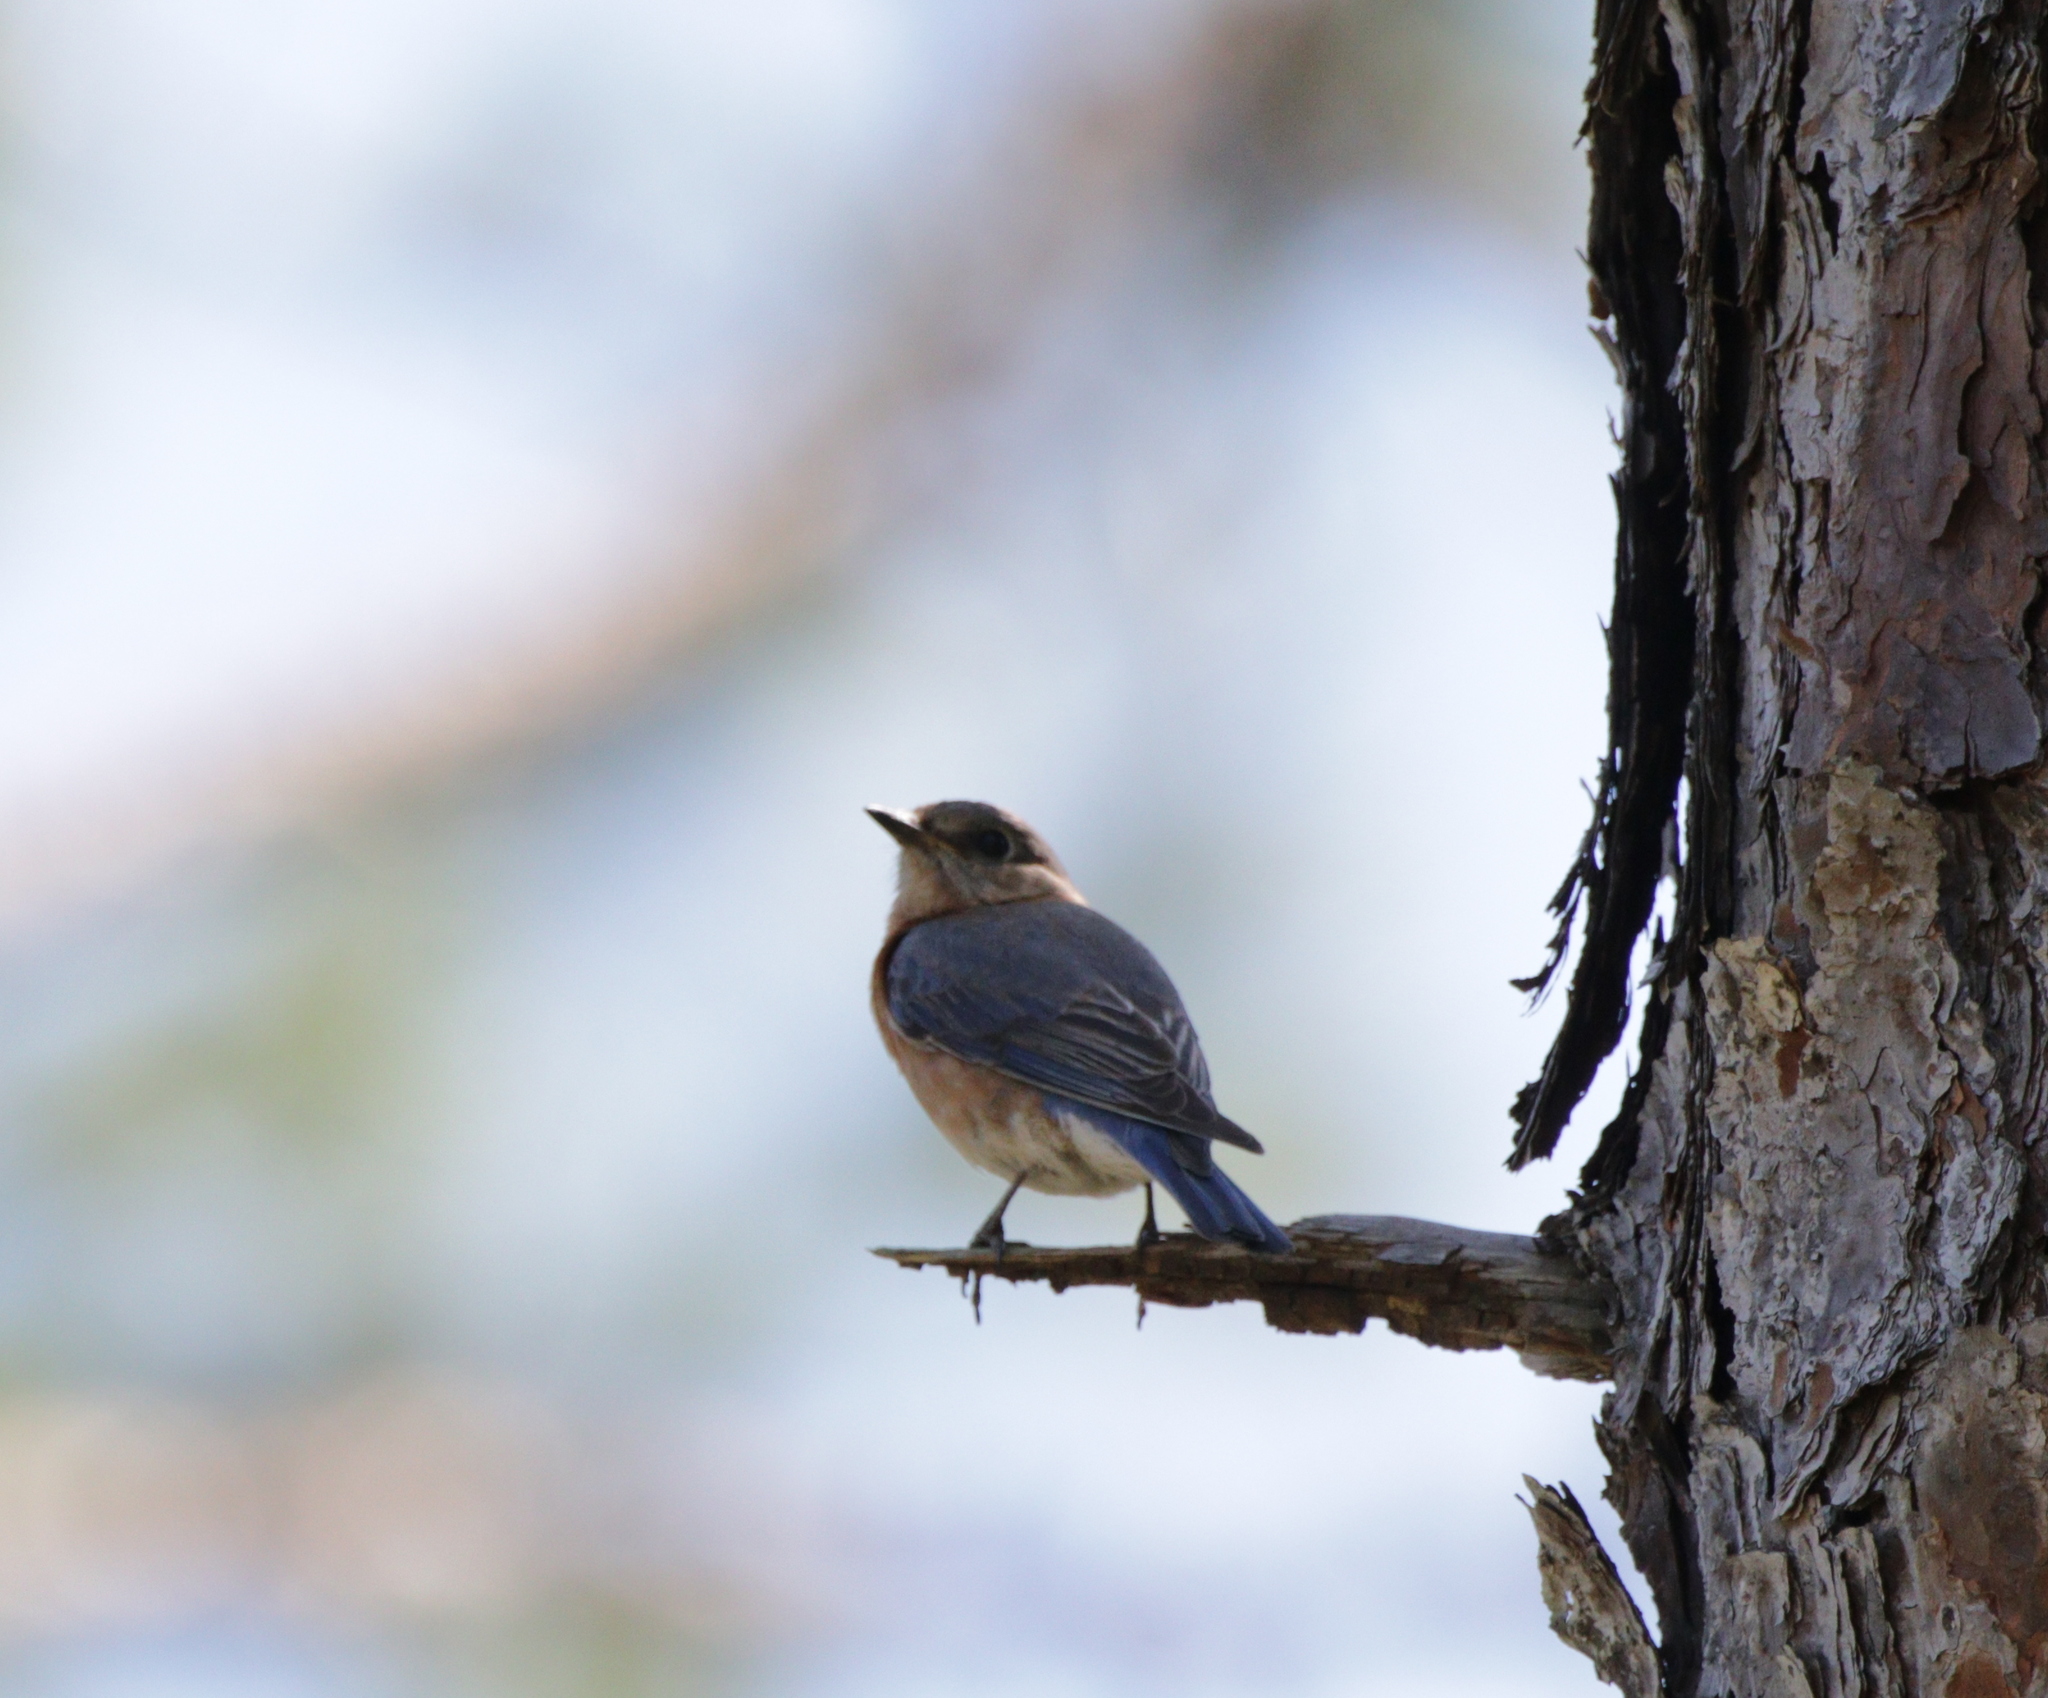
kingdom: Animalia
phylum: Chordata
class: Aves
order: Passeriformes
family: Turdidae
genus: Sialia
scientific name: Sialia sialis
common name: Eastern bluebird
